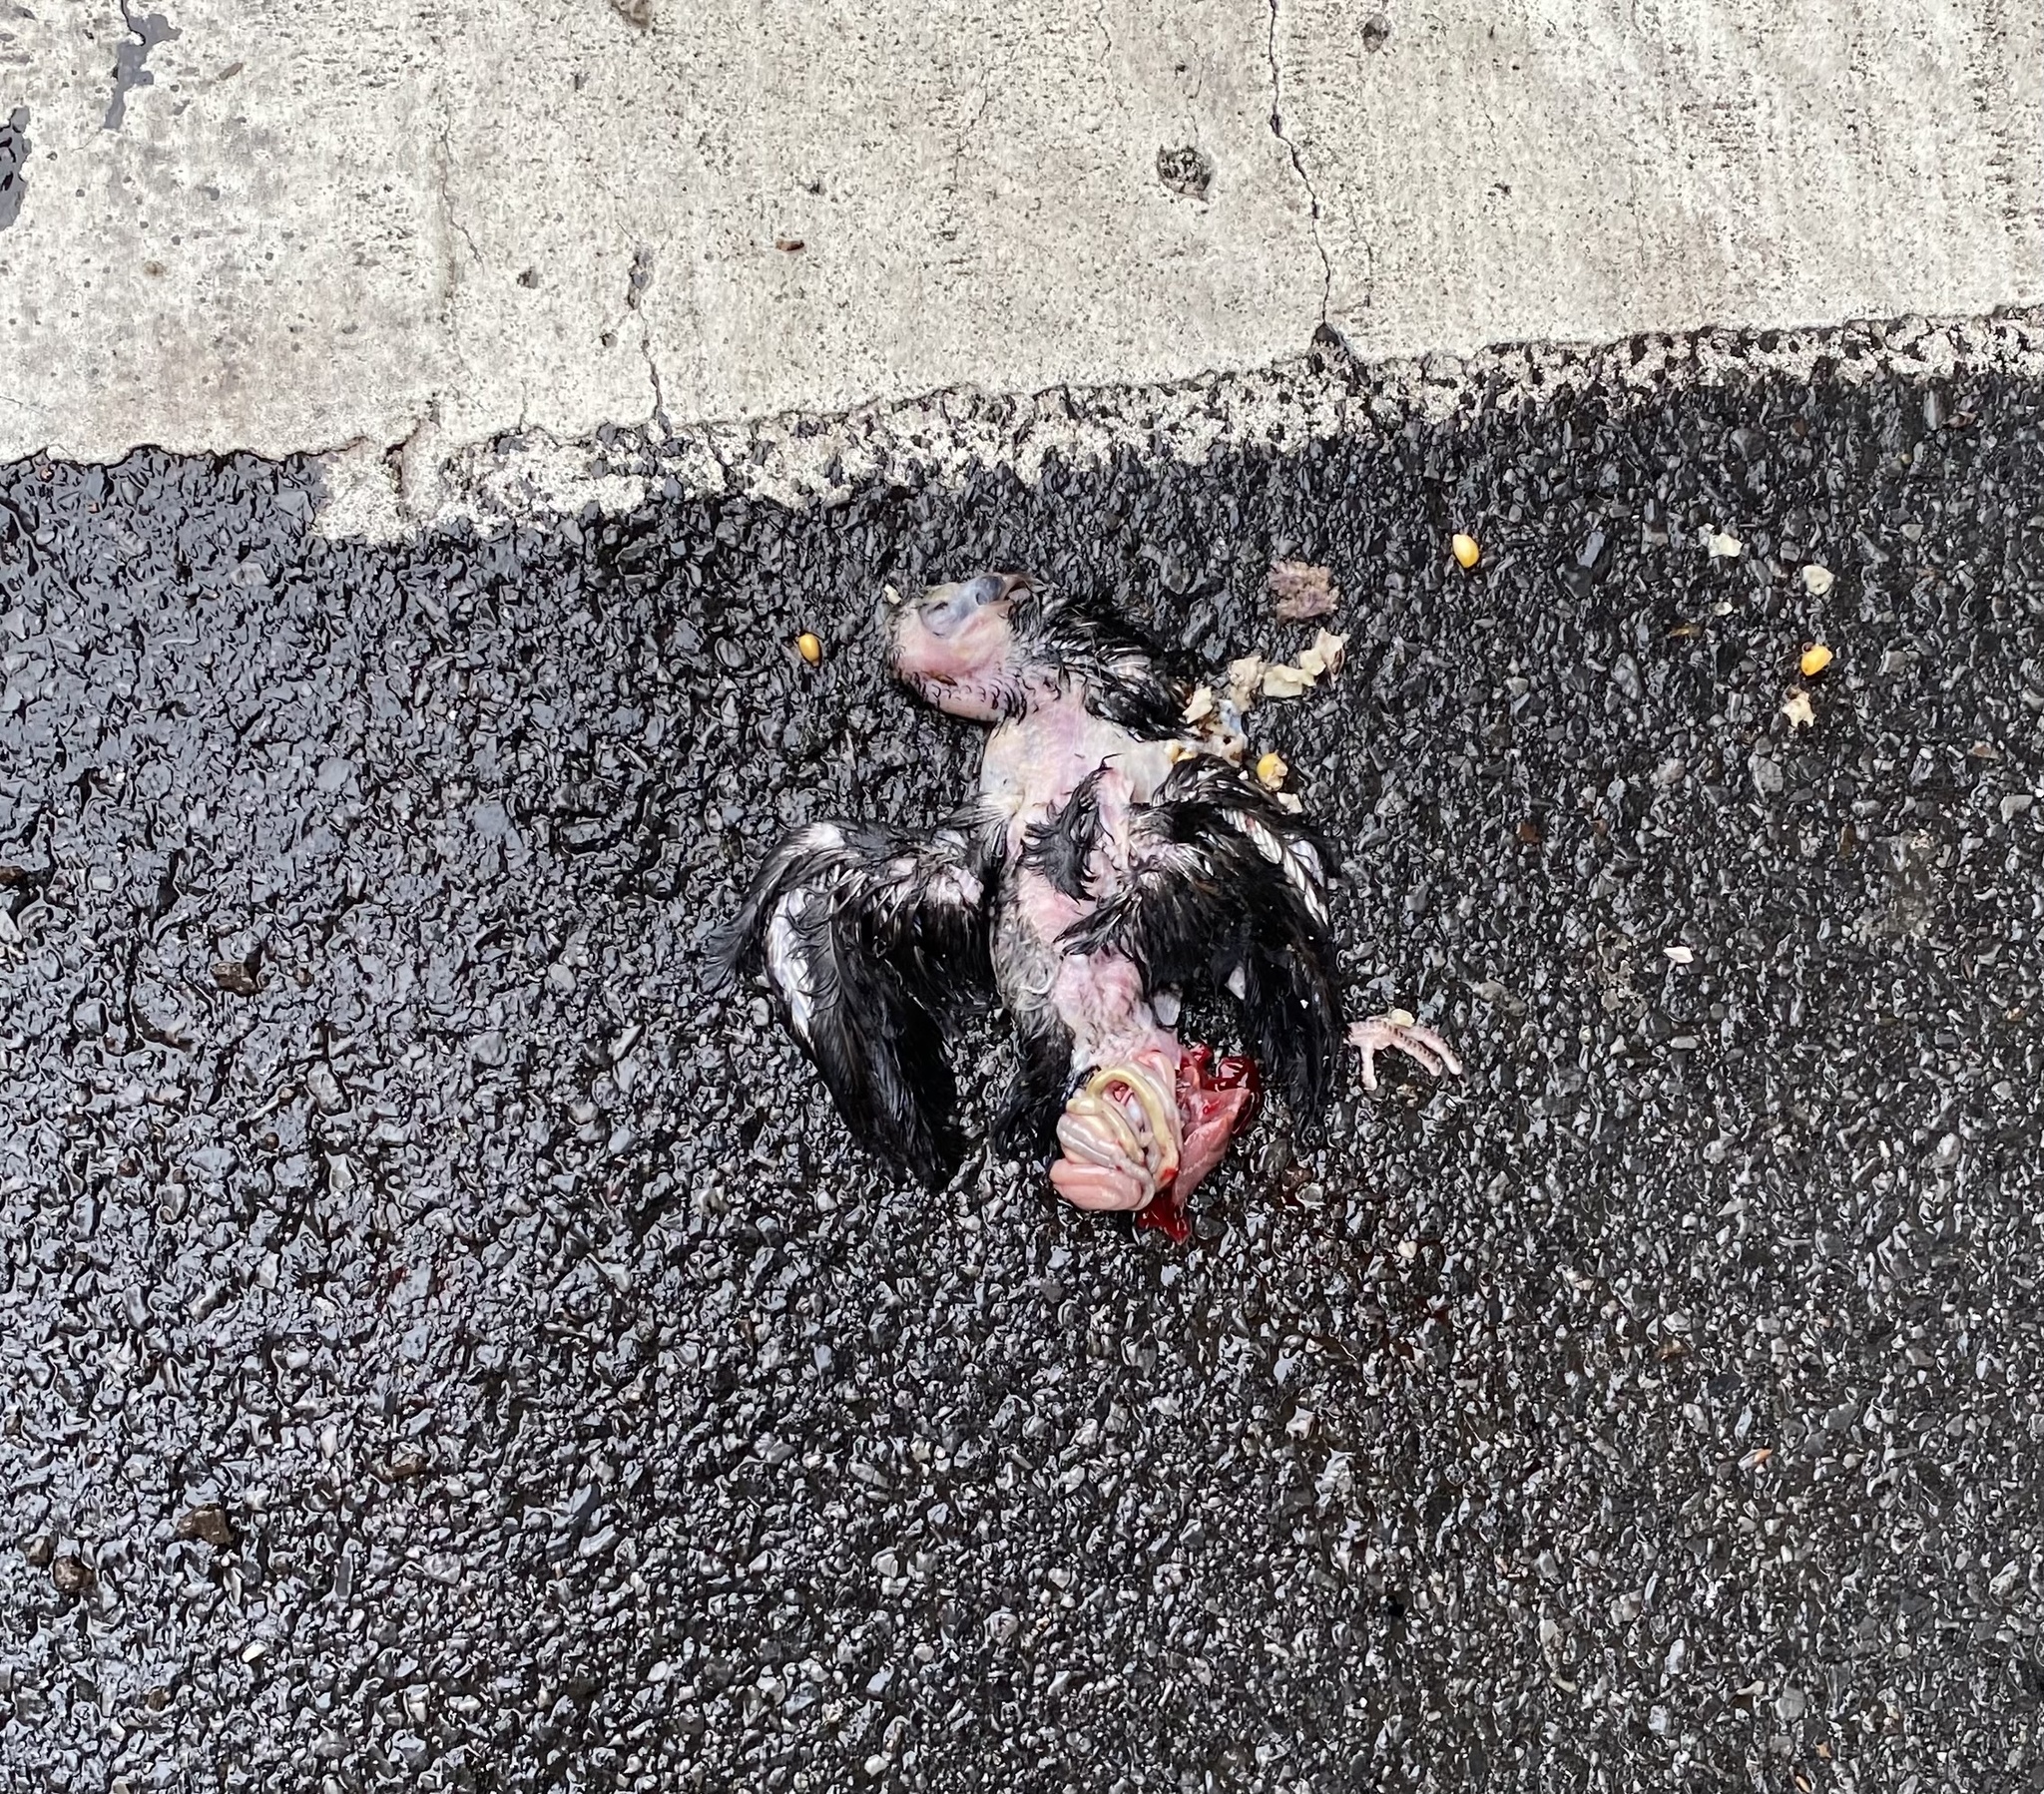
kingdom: Animalia
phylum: Chordata
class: Aves
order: Columbiformes
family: Columbidae
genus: Columba
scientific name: Columba livia
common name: Rock pigeon
